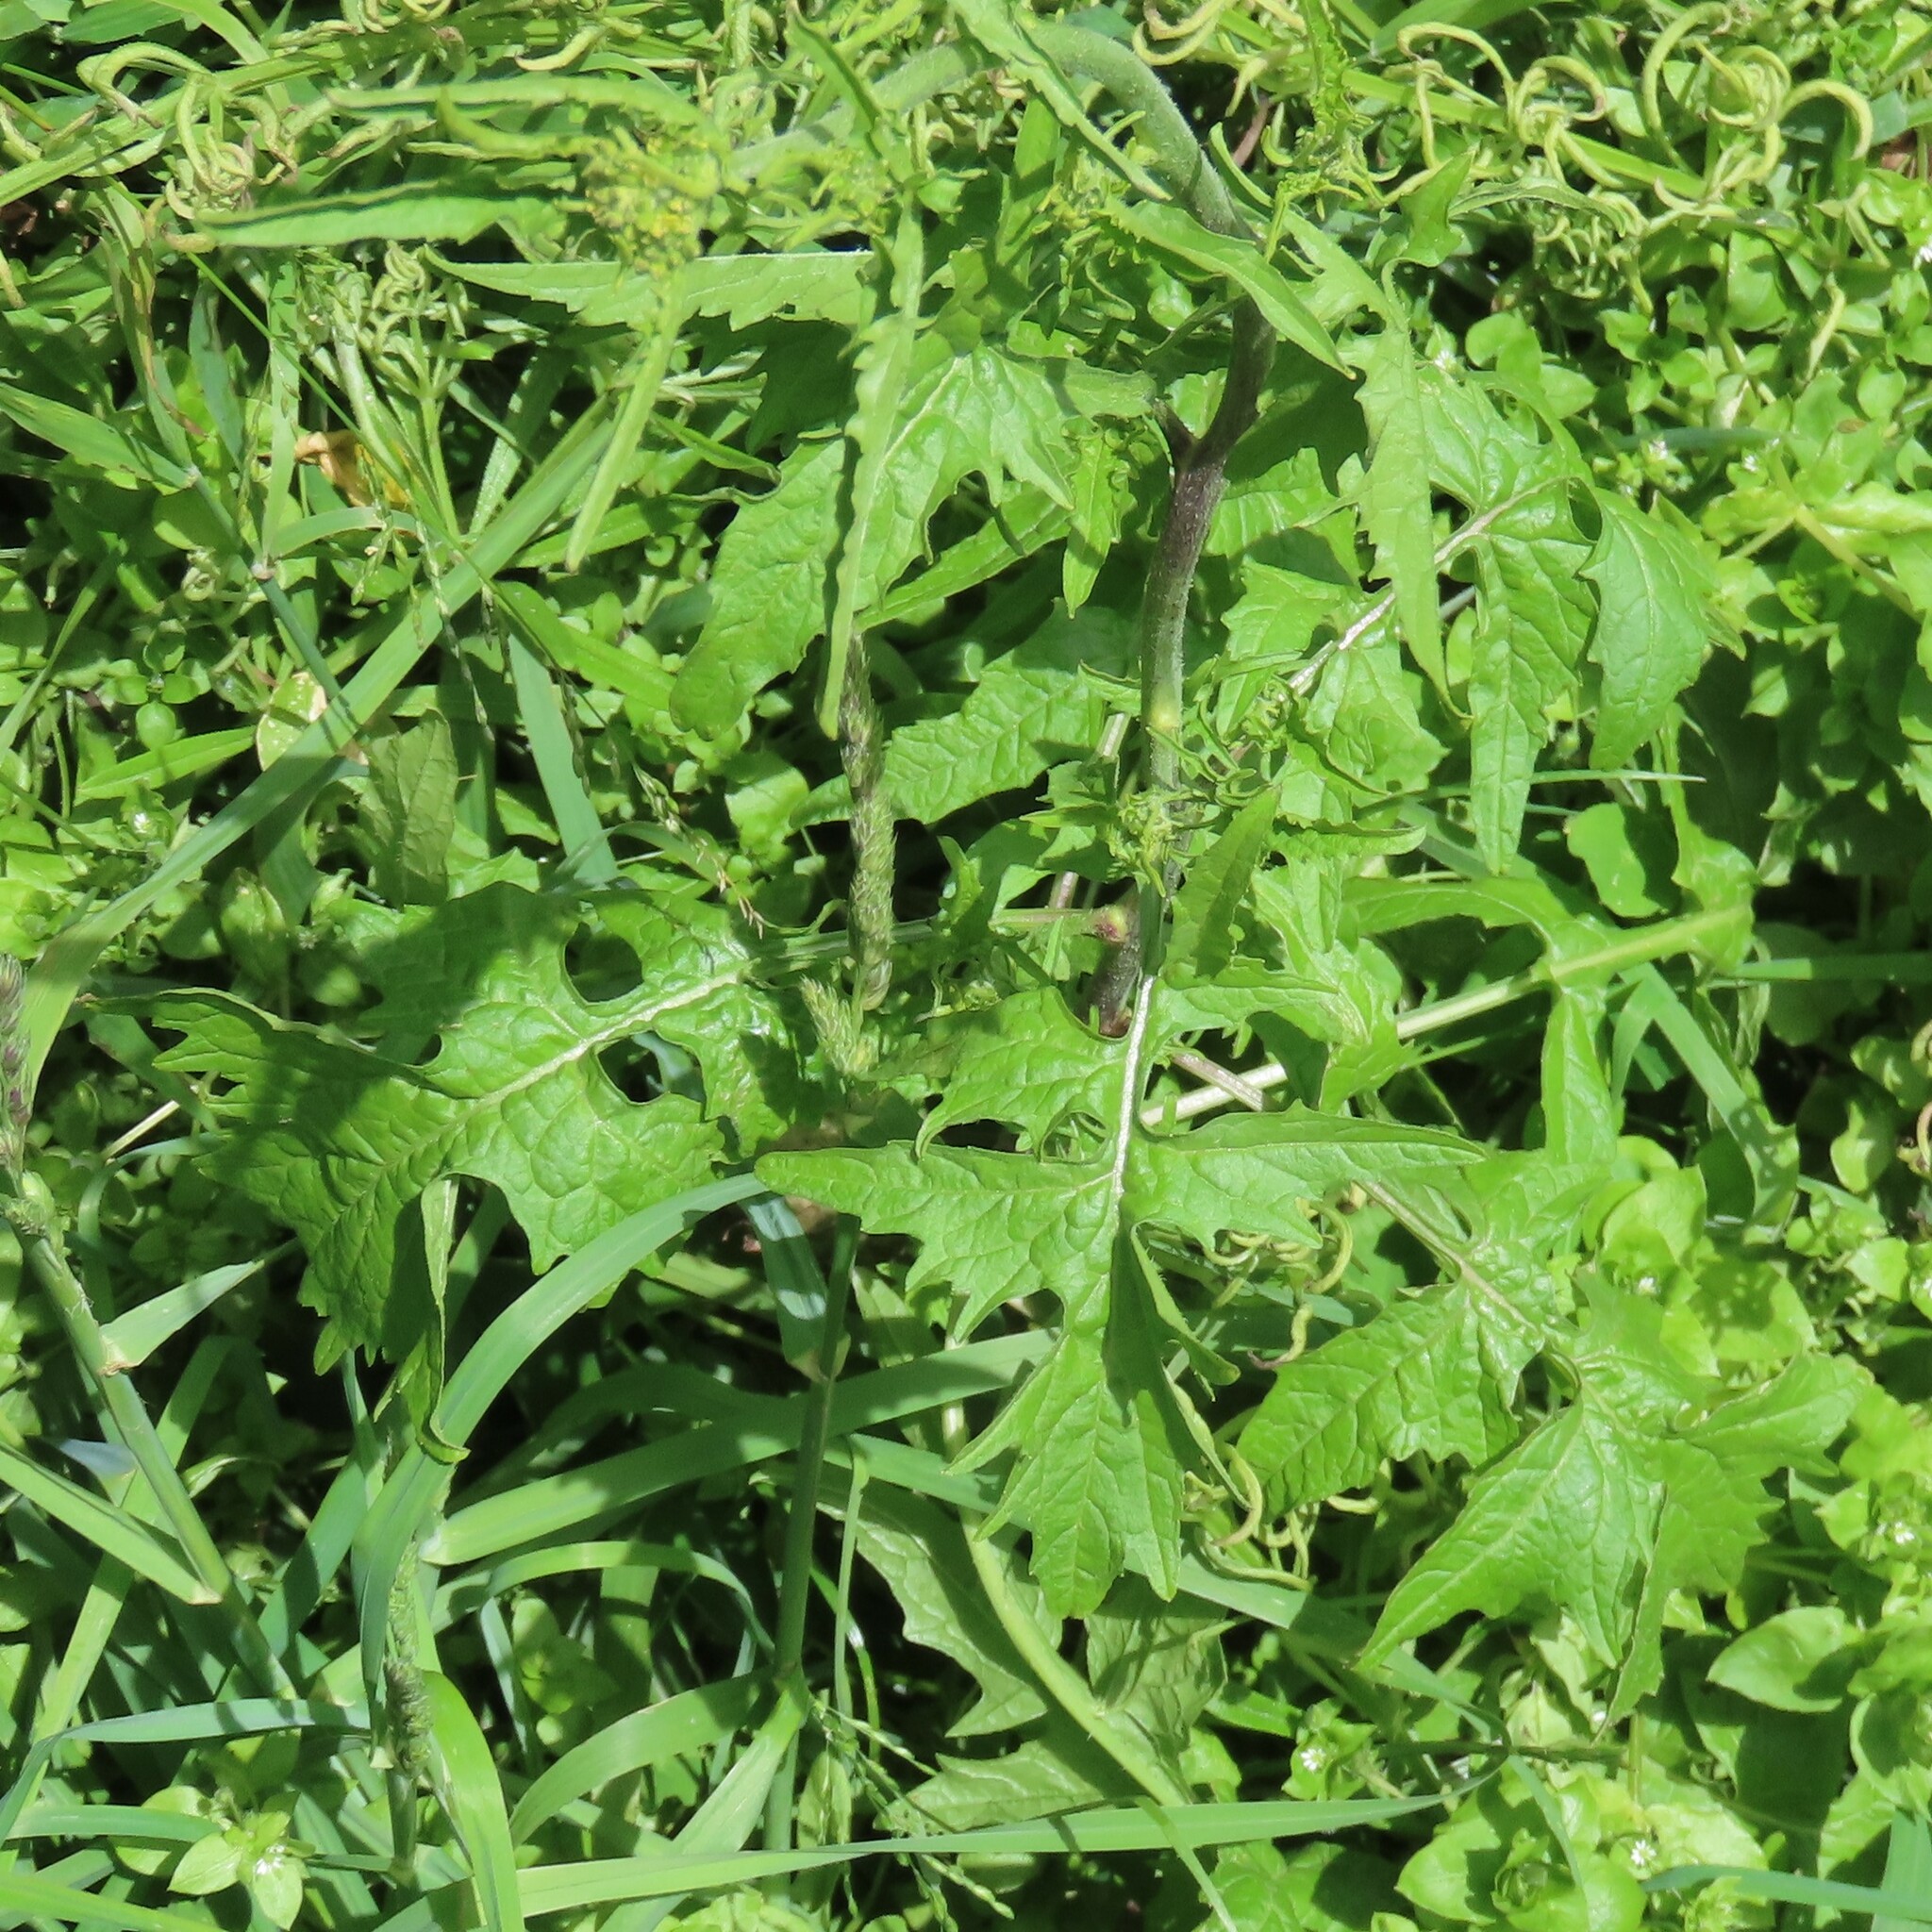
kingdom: Plantae
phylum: Tracheophyta
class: Magnoliopsida
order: Brassicales
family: Brassicaceae
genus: Sisymbrium
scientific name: Sisymbrium officinale
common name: Hedge mustard
